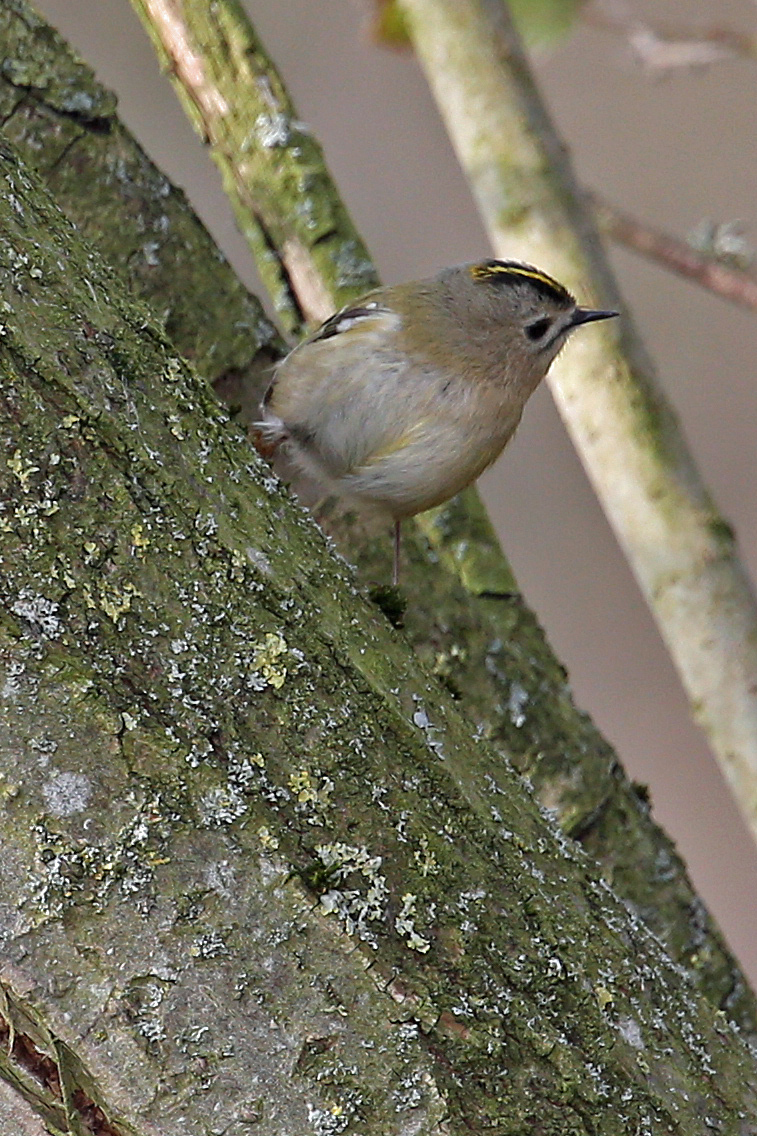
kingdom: Animalia
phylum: Chordata
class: Aves
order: Passeriformes
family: Regulidae
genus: Regulus
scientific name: Regulus regulus
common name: Goldcrest
